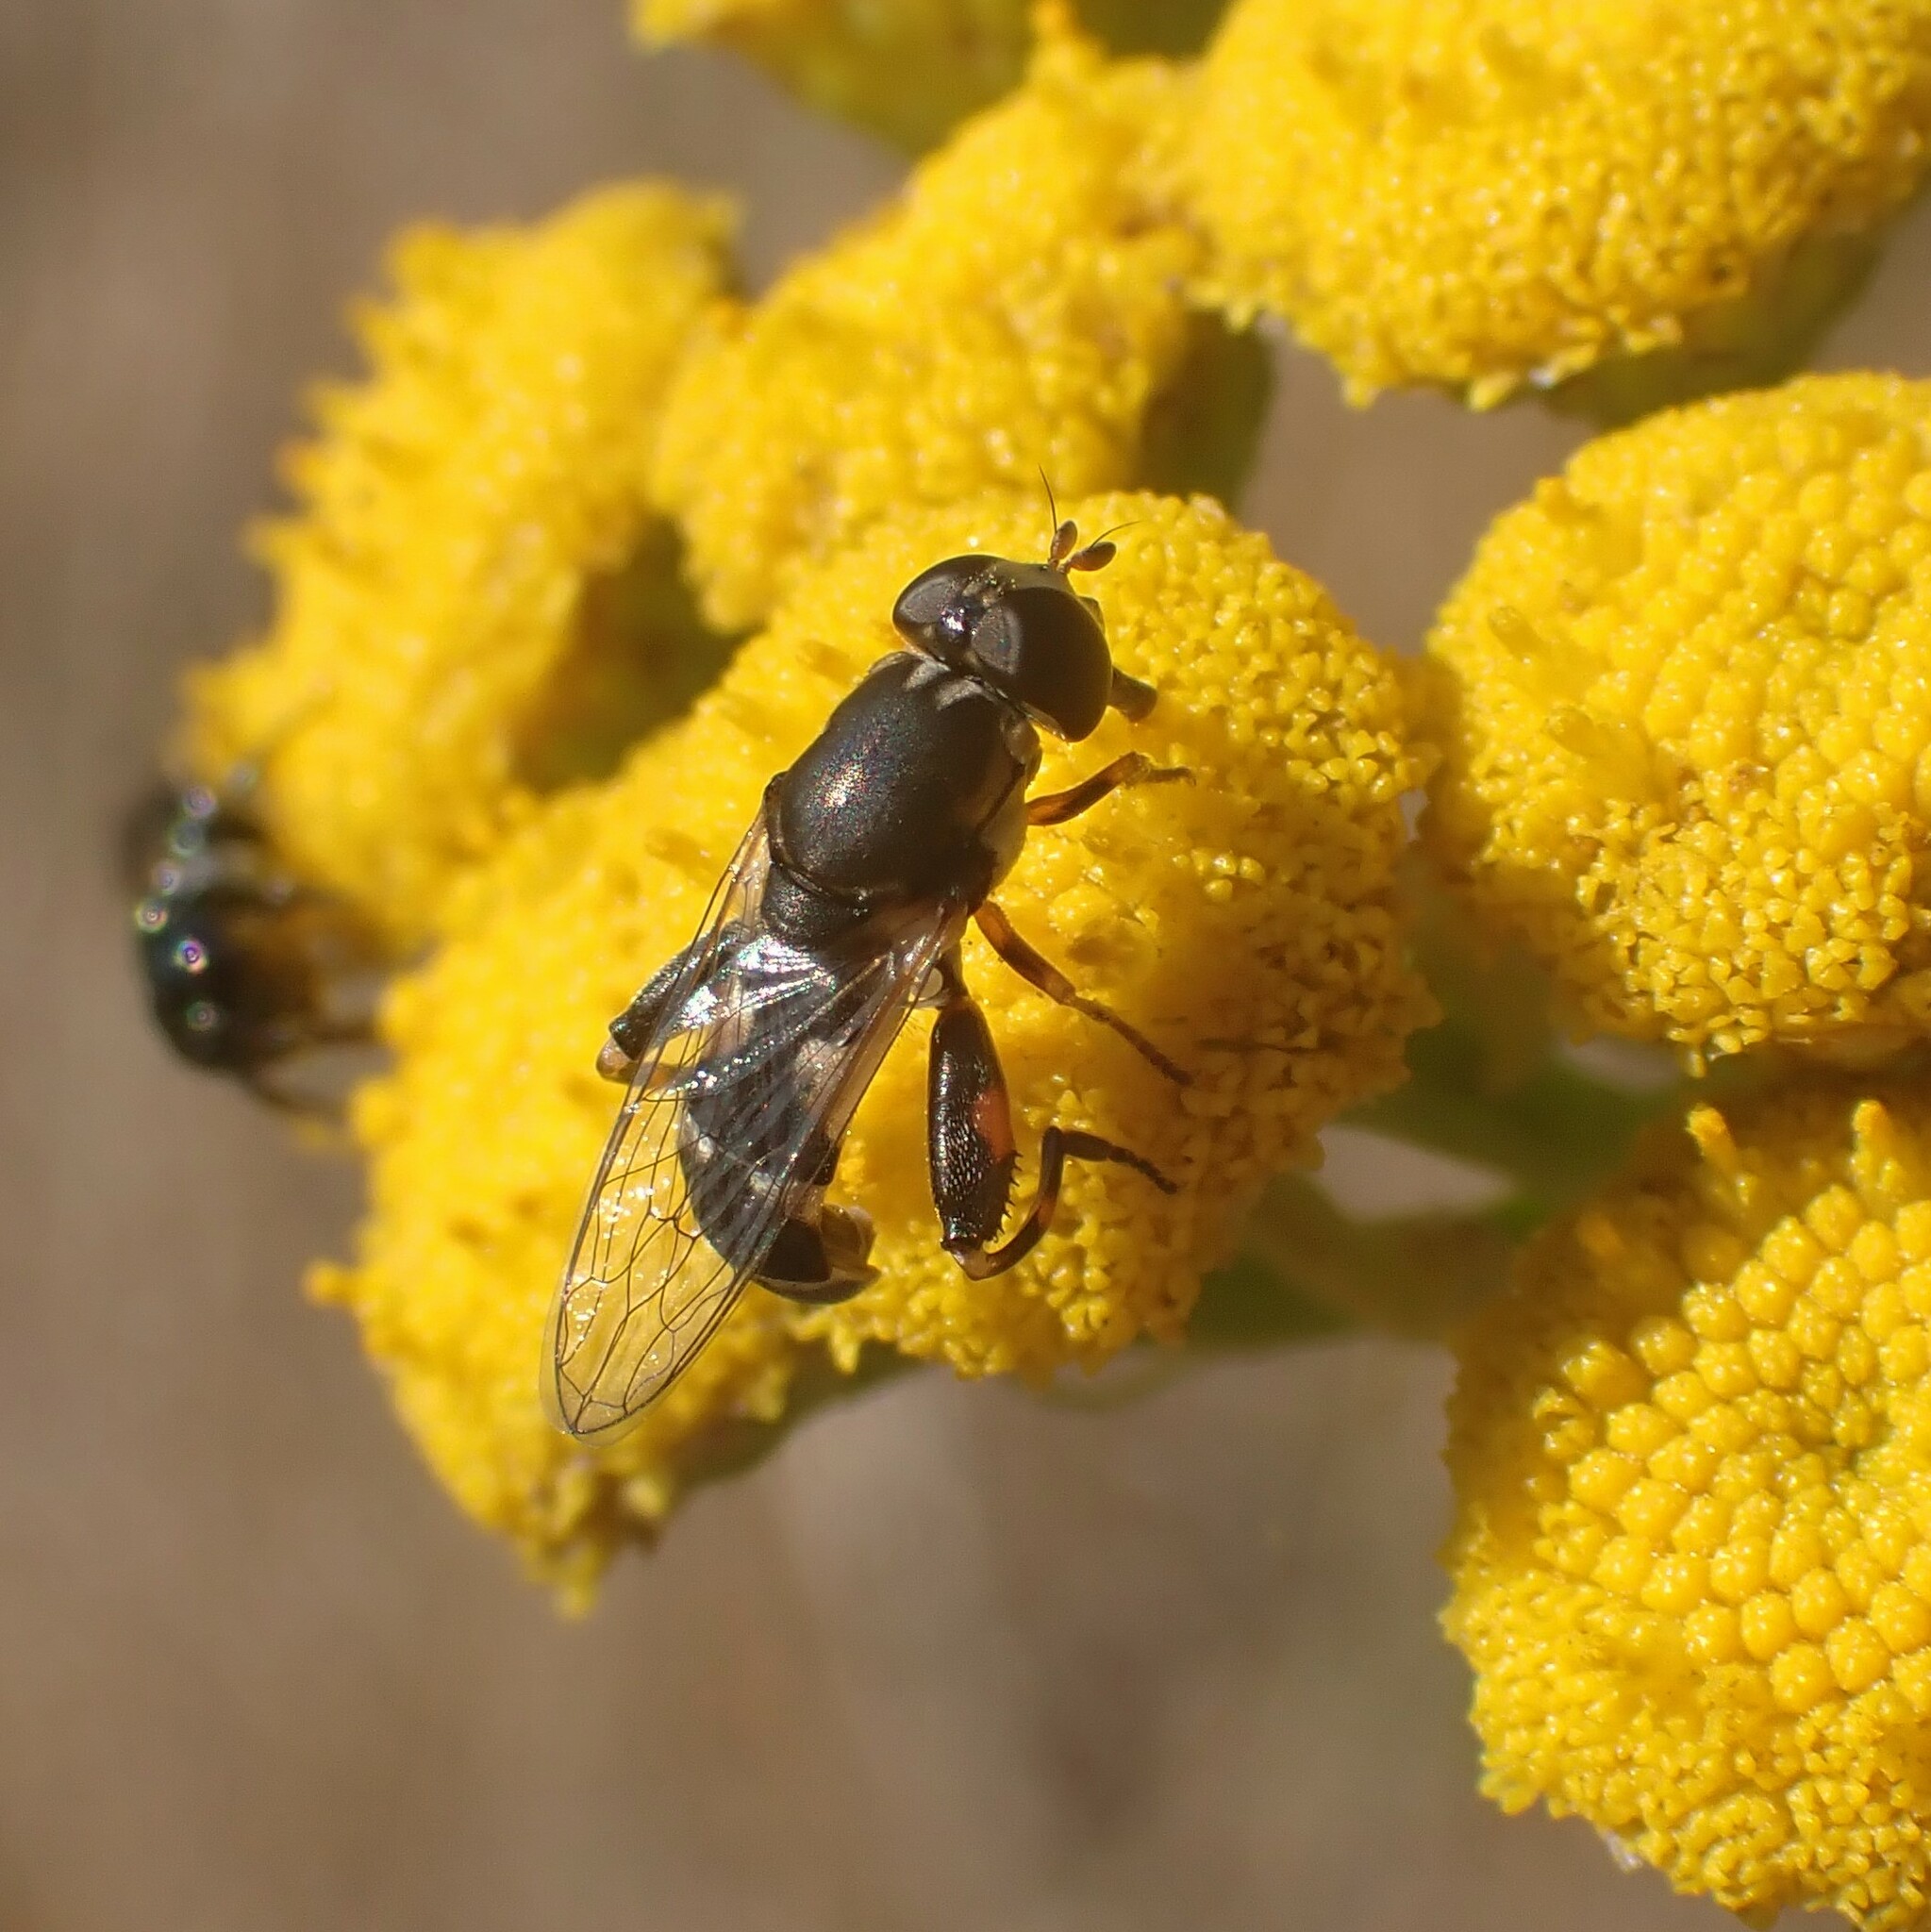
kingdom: Animalia
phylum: Arthropoda
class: Insecta
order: Diptera
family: Syrphidae
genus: Syritta
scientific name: Syritta pipiens
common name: Hover fly
